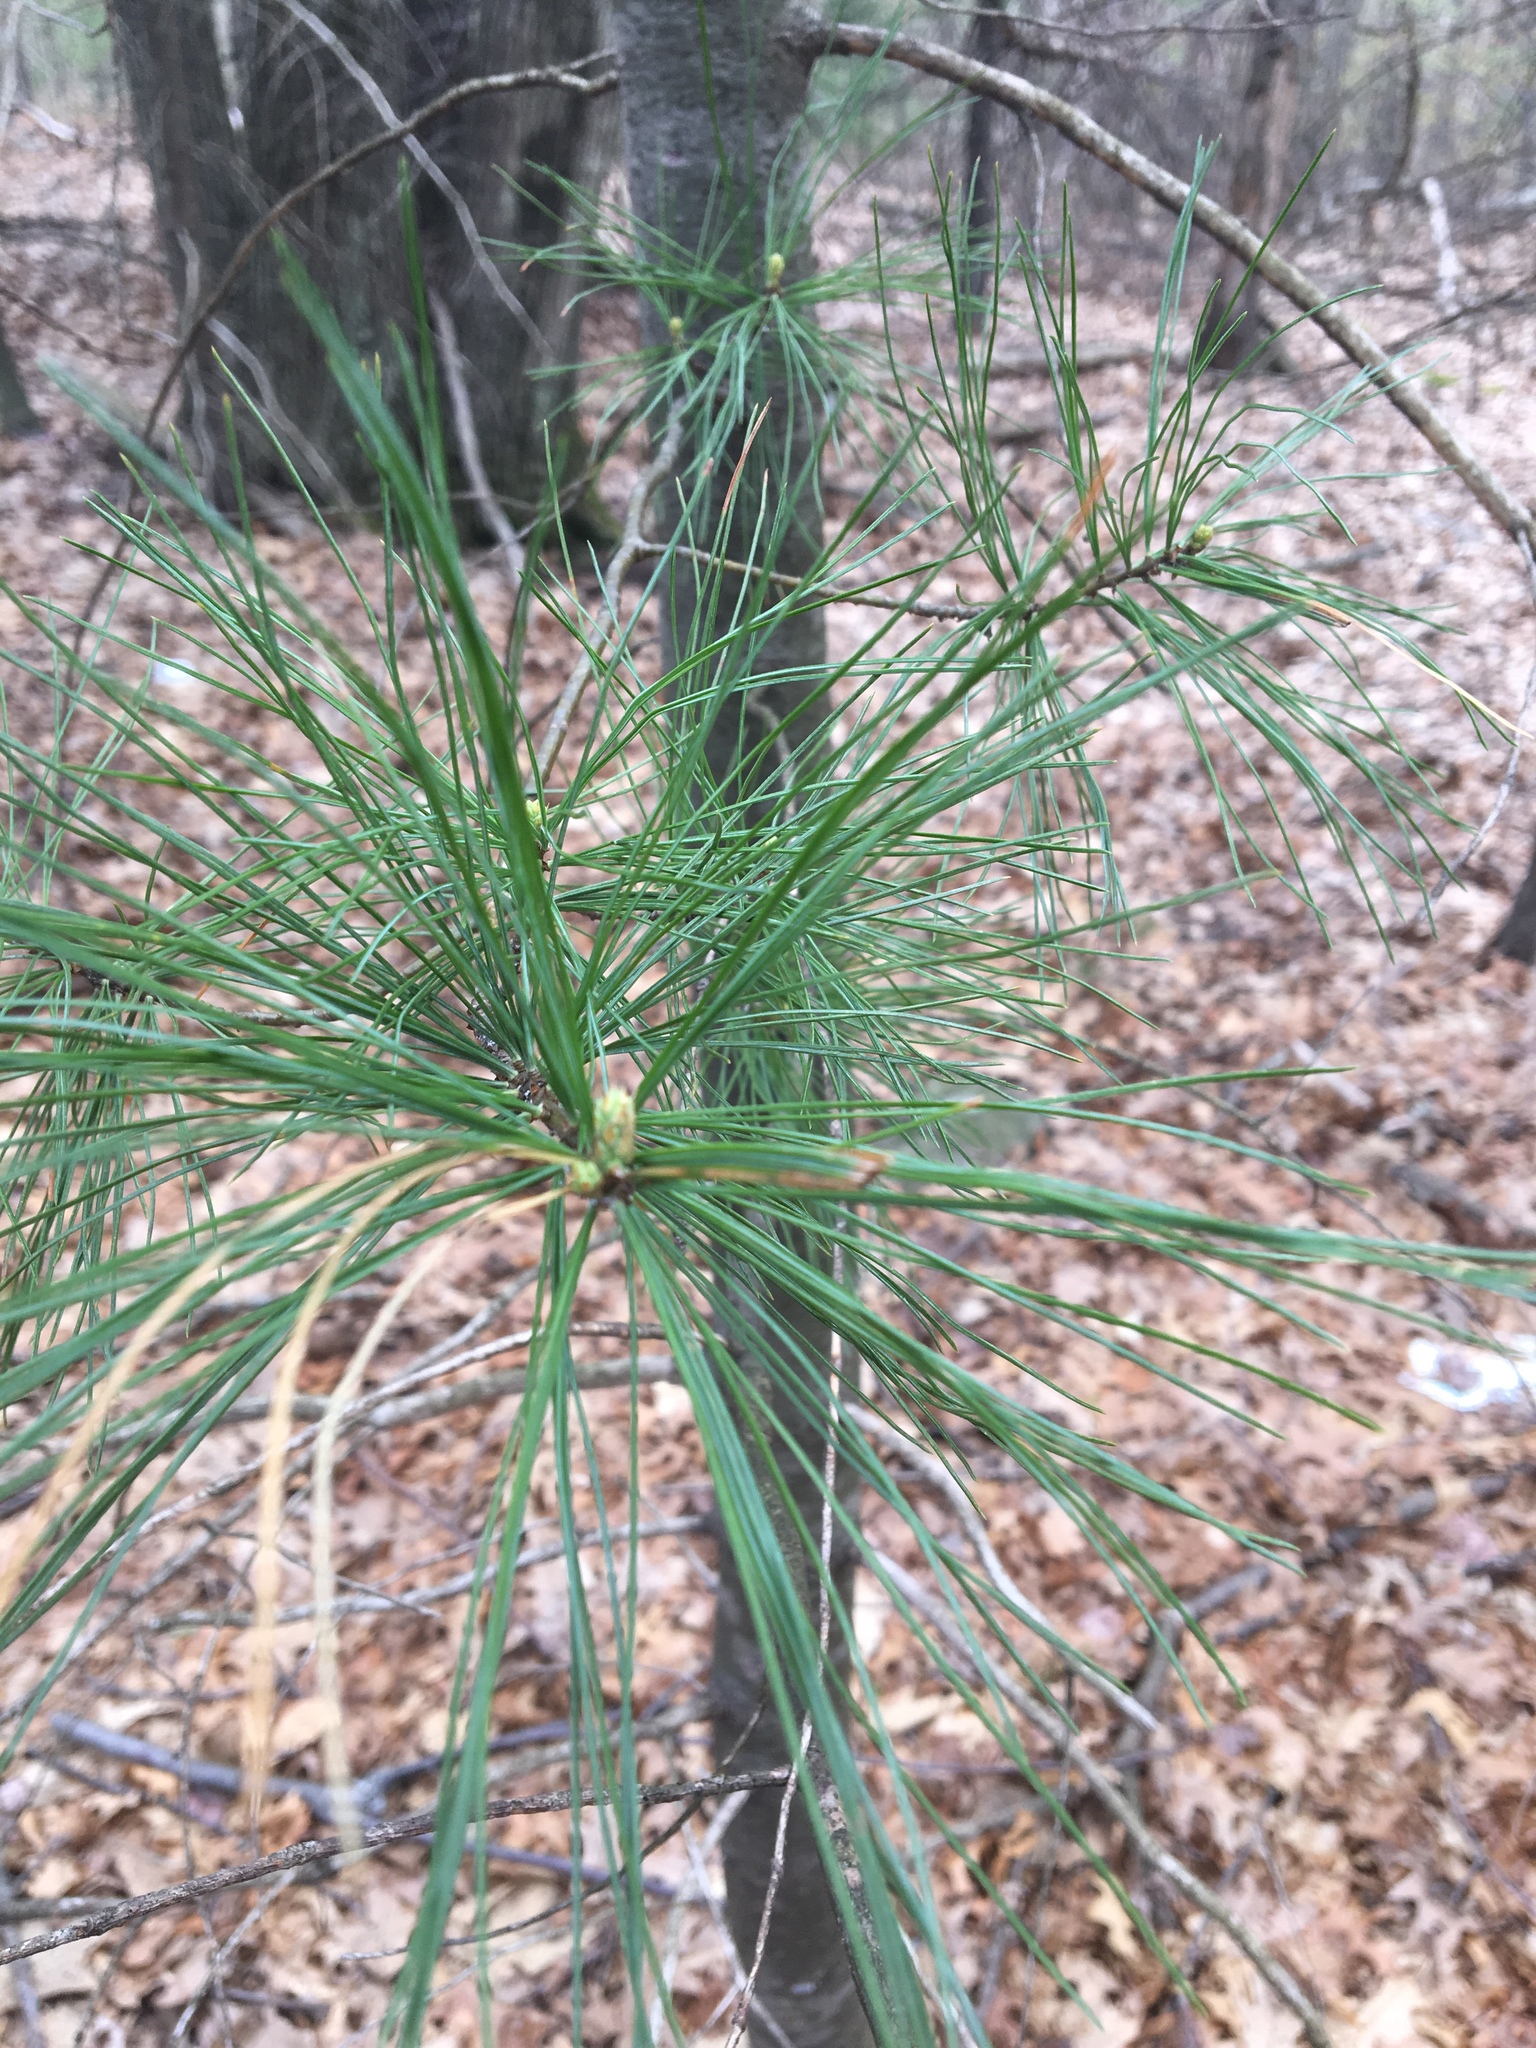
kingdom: Plantae
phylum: Tracheophyta
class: Pinopsida
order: Pinales
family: Pinaceae
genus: Pinus
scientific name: Pinus strobus
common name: Weymouth pine
